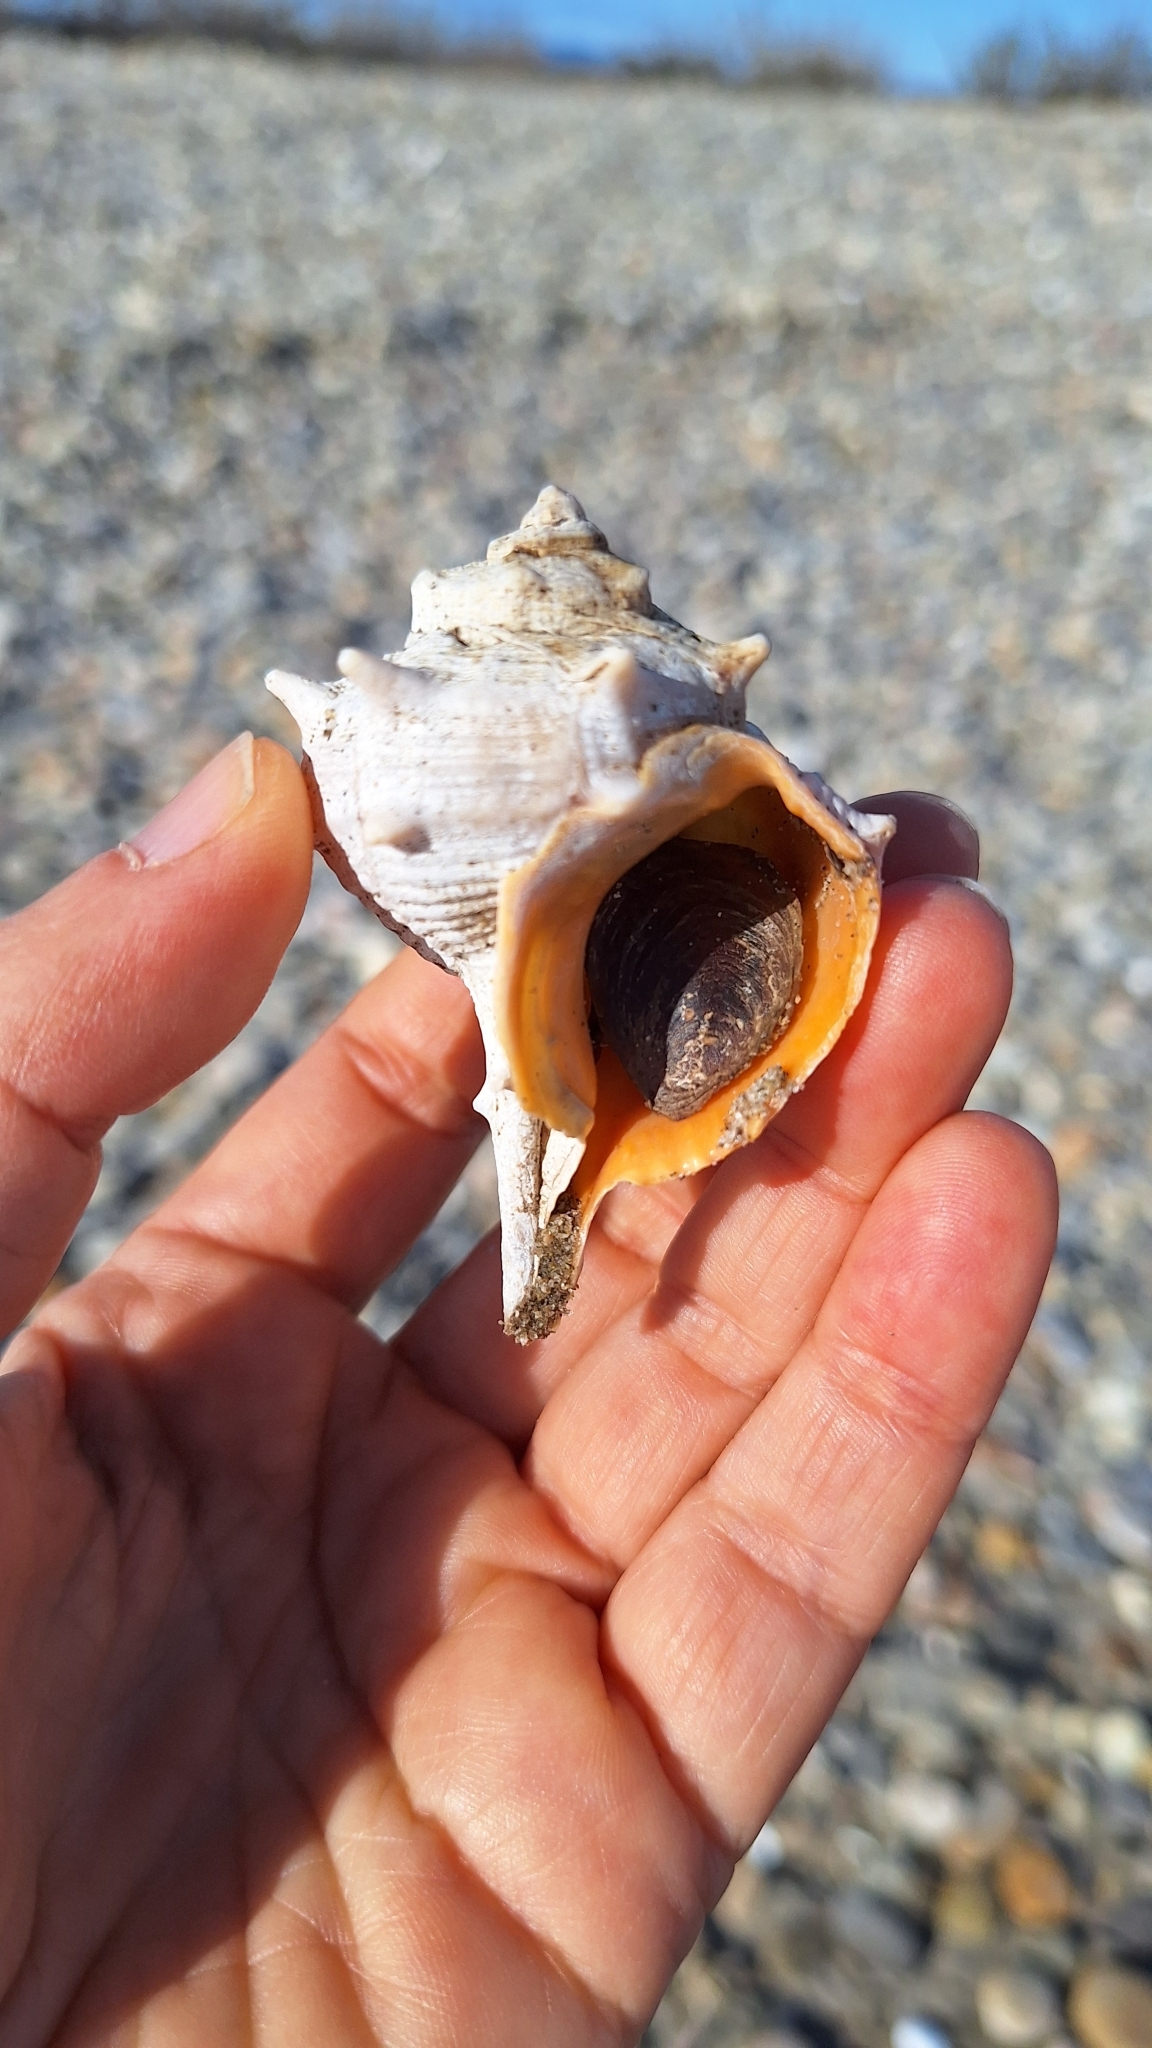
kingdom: Animalia
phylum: Mollusca
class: Gastropoda
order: Neogastropoda
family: Muricidae
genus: Bolinus
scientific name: Bolinus brandaris
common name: Dye murex
